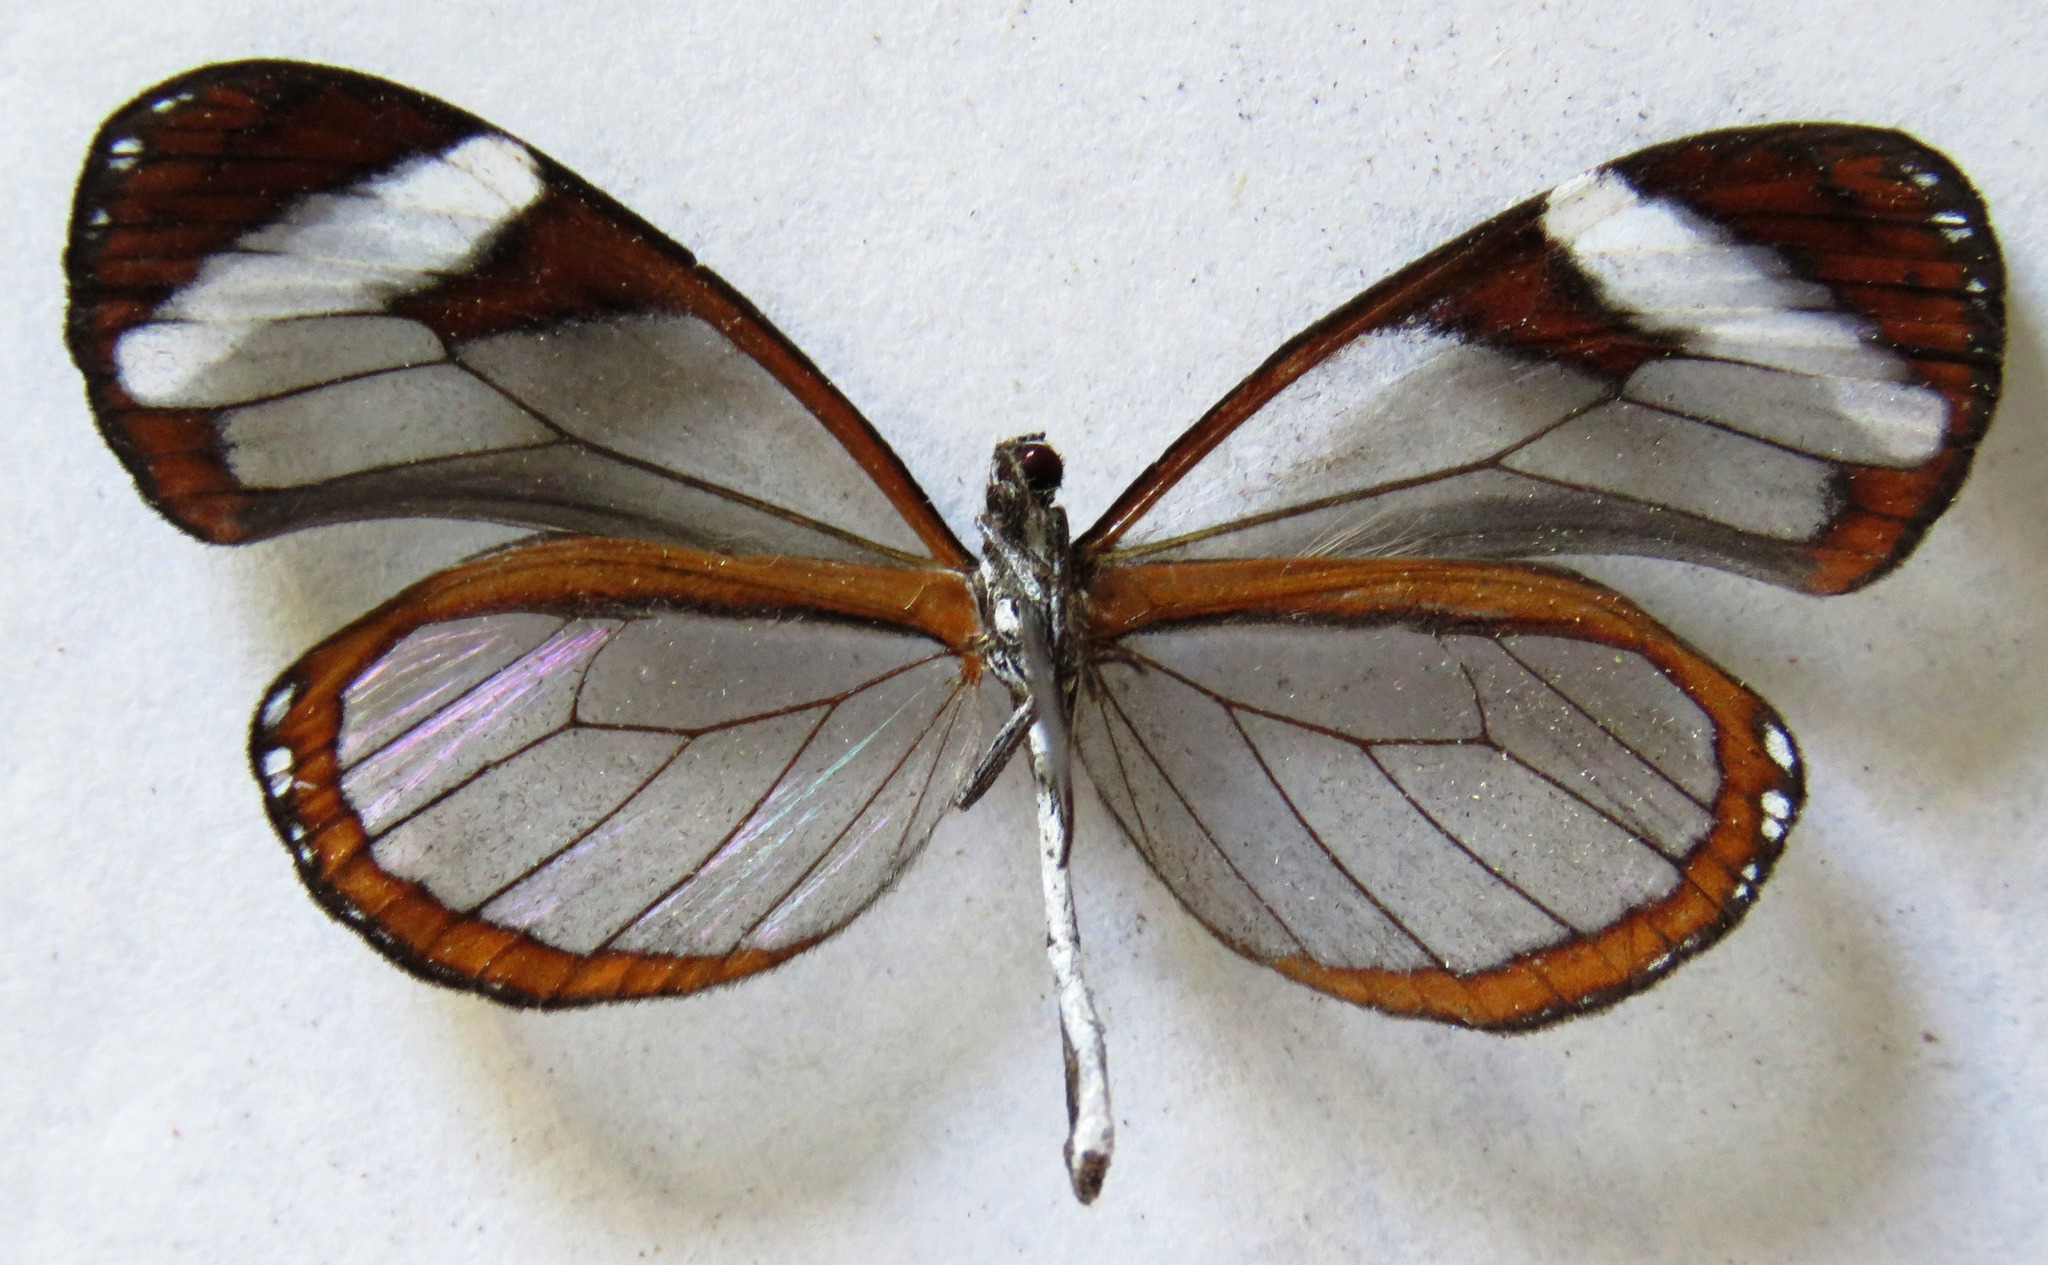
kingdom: Animalia
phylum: Arthropoda
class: Insecta
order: Lepidoptera
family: Nymphalidae
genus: Oleria
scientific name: Oleria paula
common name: Paula's clearwing
